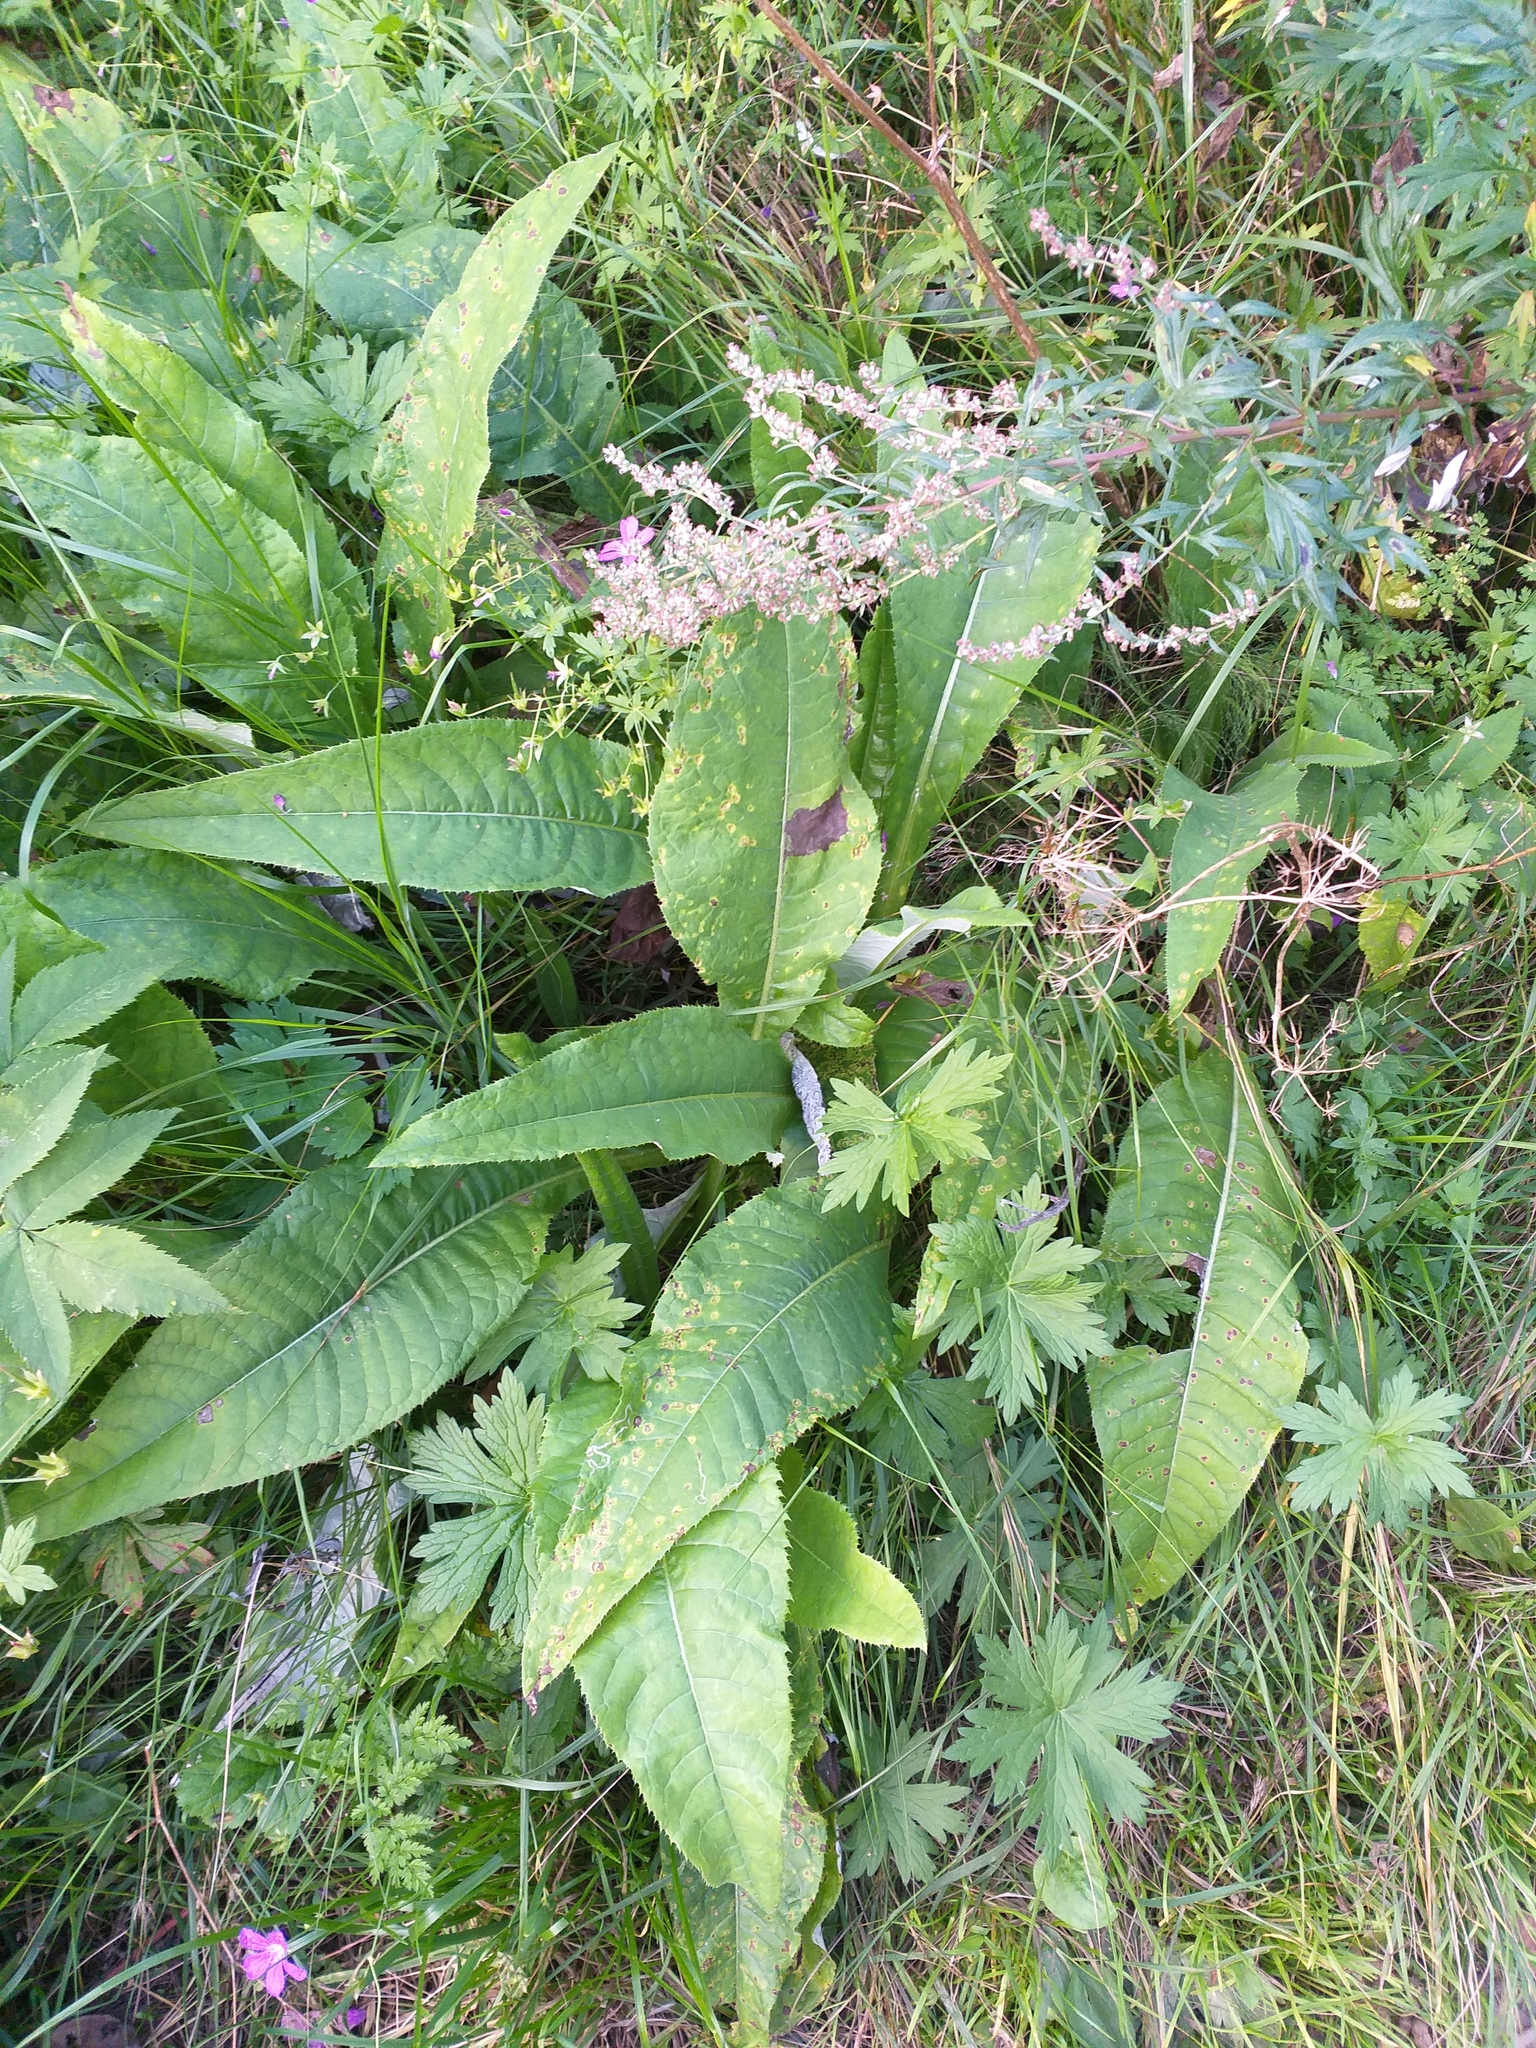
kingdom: Plantae
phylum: Tracheophyta
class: Magnoliopsida
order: Asterales
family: Asteraceae
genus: Cirsium
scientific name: Cirsium heterophyllum
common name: Melancholy thistle
